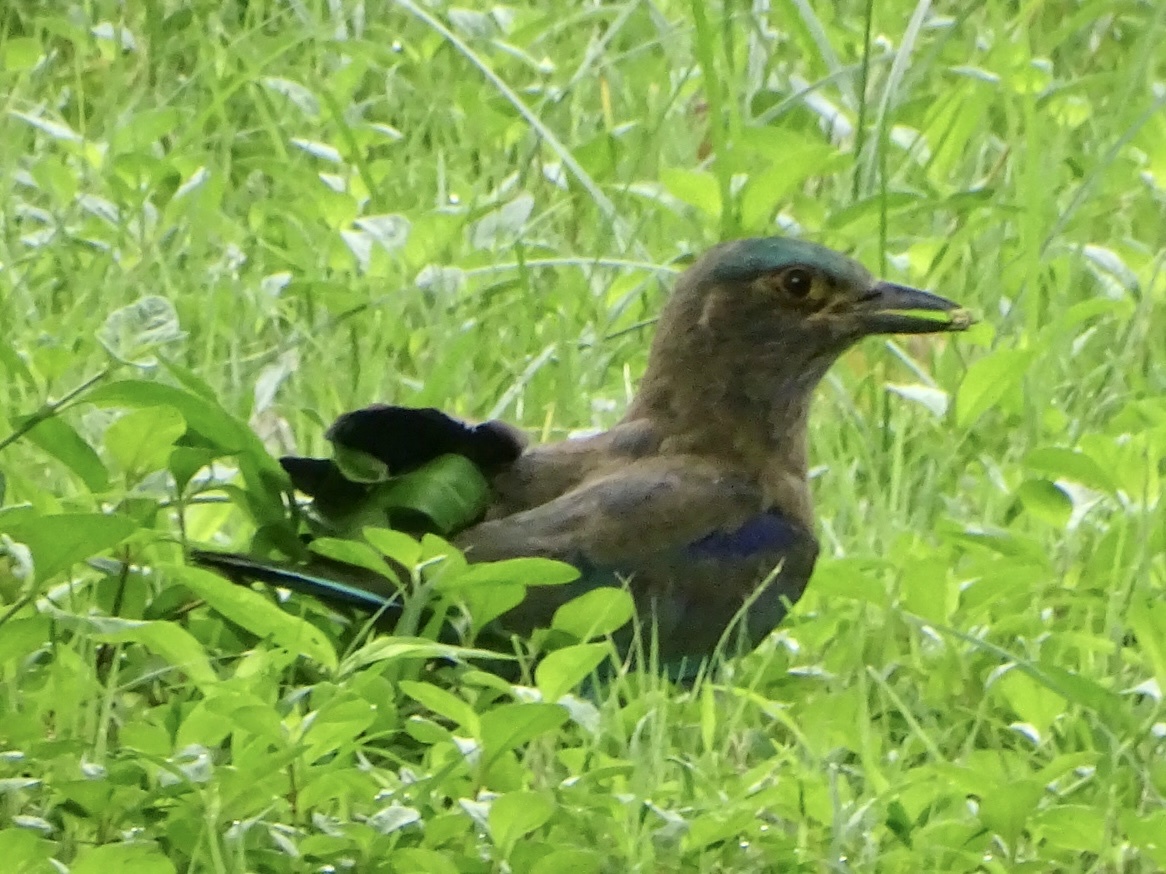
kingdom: Animalia
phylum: Chordata
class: Aves
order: Coraciiformes
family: Coraciidae
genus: Coracias
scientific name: Coracias affinis
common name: Indochinese roller
